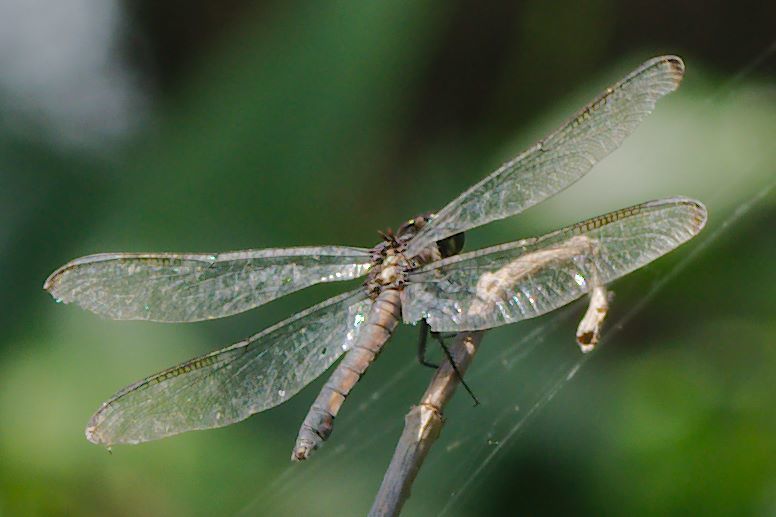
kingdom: Animalia
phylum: Arthropoda
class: Insecta
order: Odonata
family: Libellulidae
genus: Libellula
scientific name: Libellula incesta
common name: Slaty skimmer
